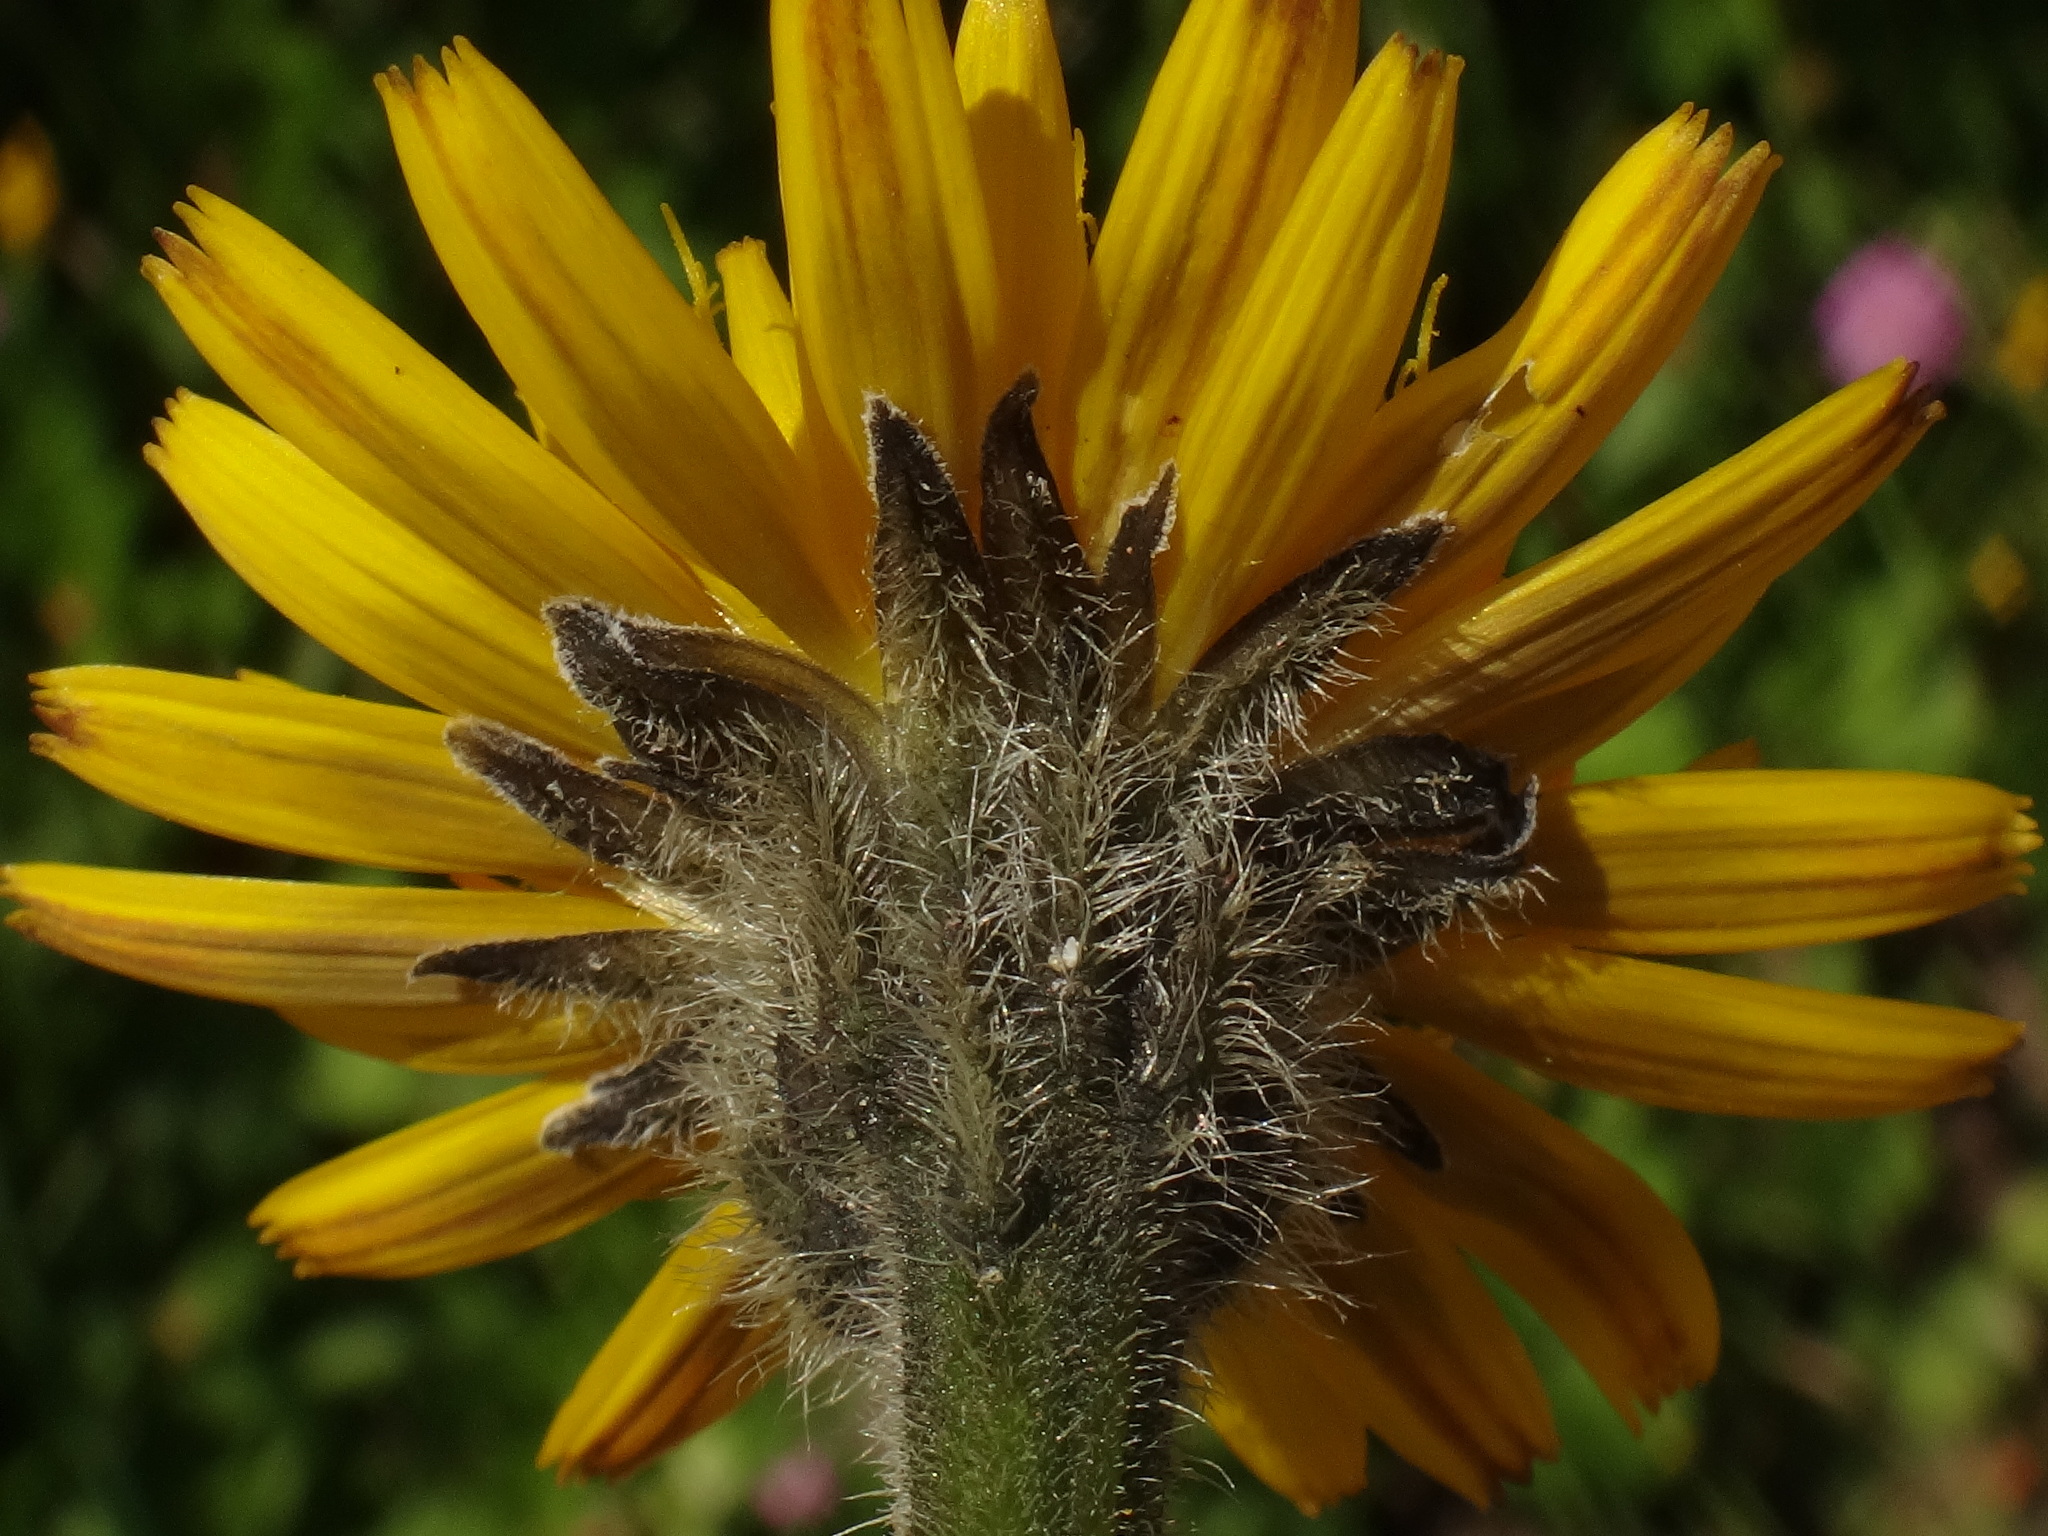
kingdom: Plantae
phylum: Tracheophyta
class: Magnoliopsida
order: Asterales
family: Asteraceae
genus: Leontodon
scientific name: Leontodon hispidus
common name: Rough hawkbit
